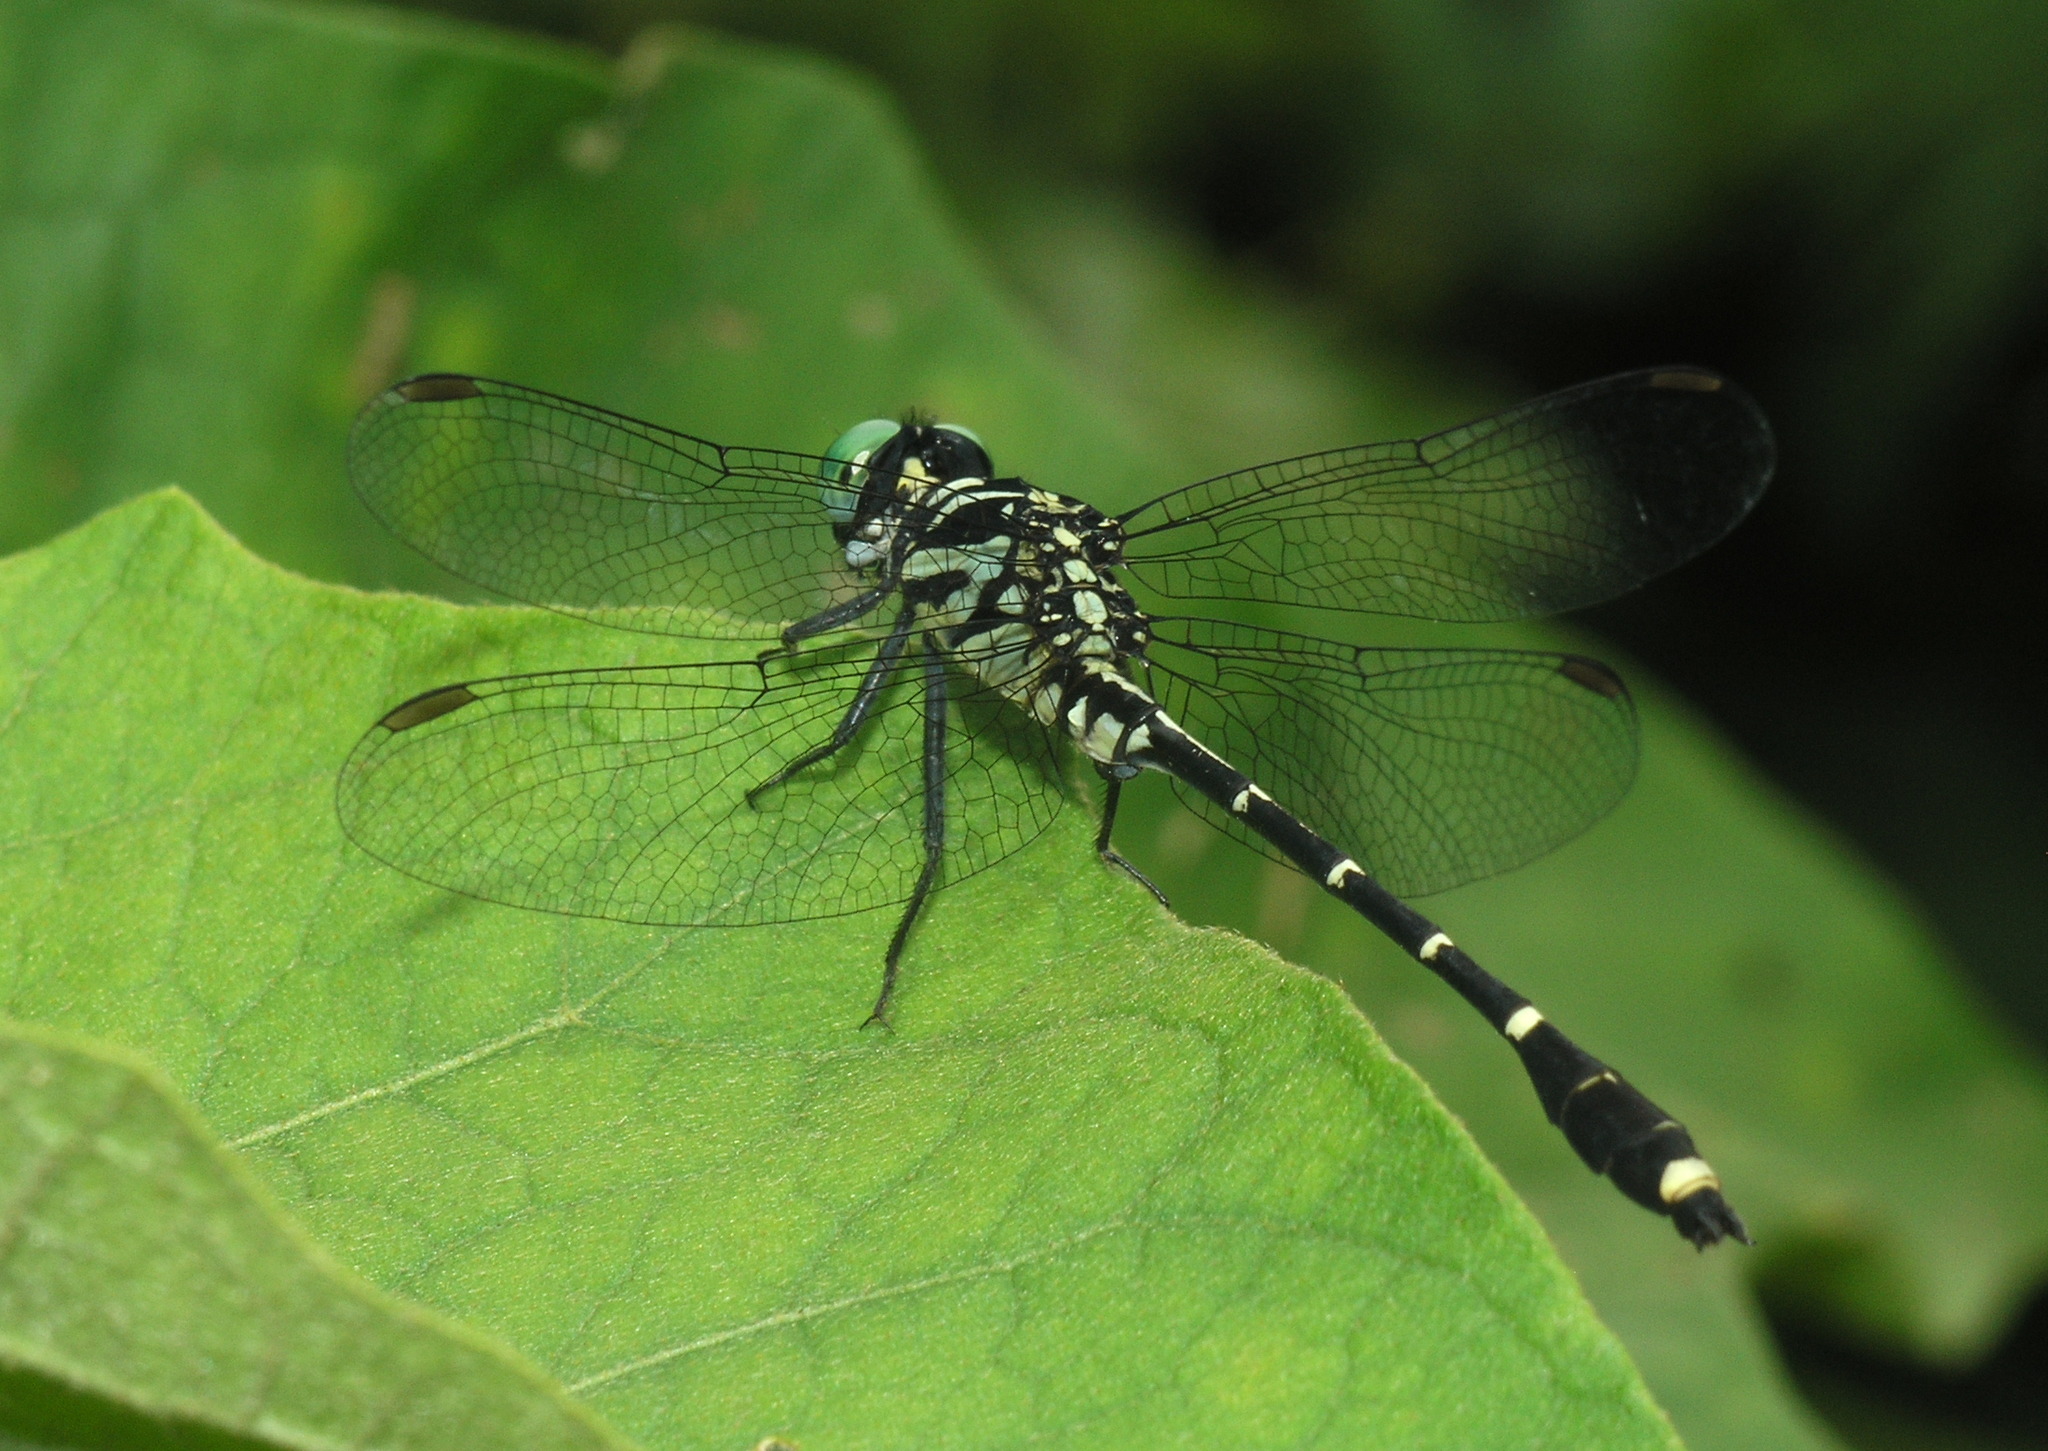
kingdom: Animalia
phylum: Arthropoda
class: Insecta
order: Odonata
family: Gomphidae
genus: Burmagomphus
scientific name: Burmagomphus divaricatus
